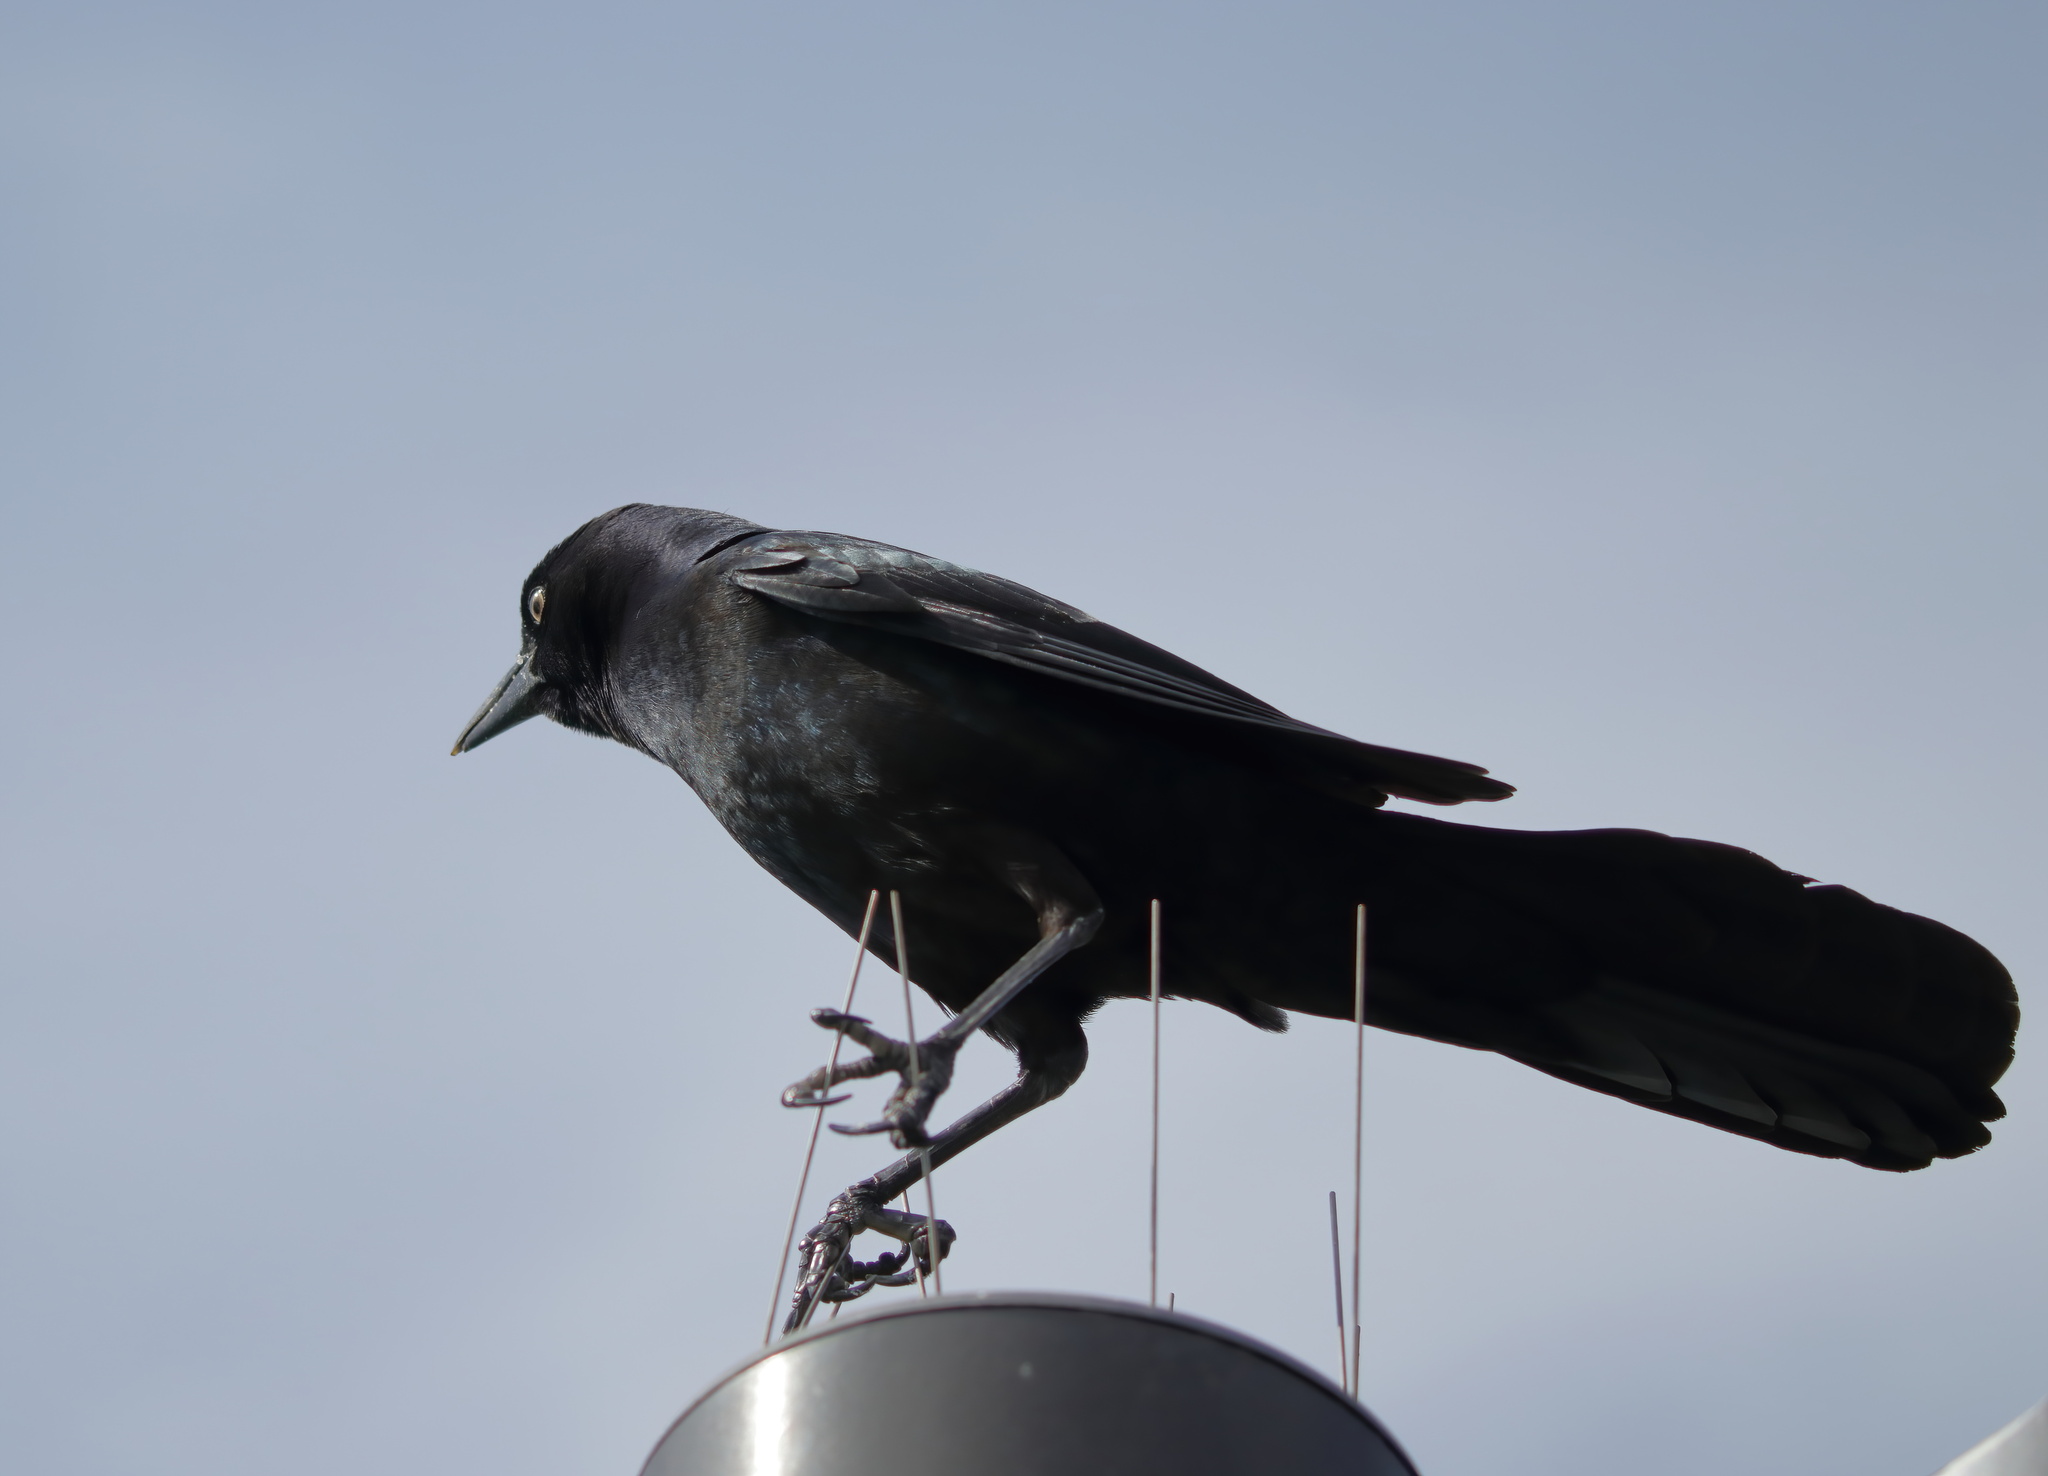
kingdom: Animalia
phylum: Chordata
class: Aves
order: Passeriformes
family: Icteridae
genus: Quiscalus
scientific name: Quiscalus major
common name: Boat-tailed grackle
